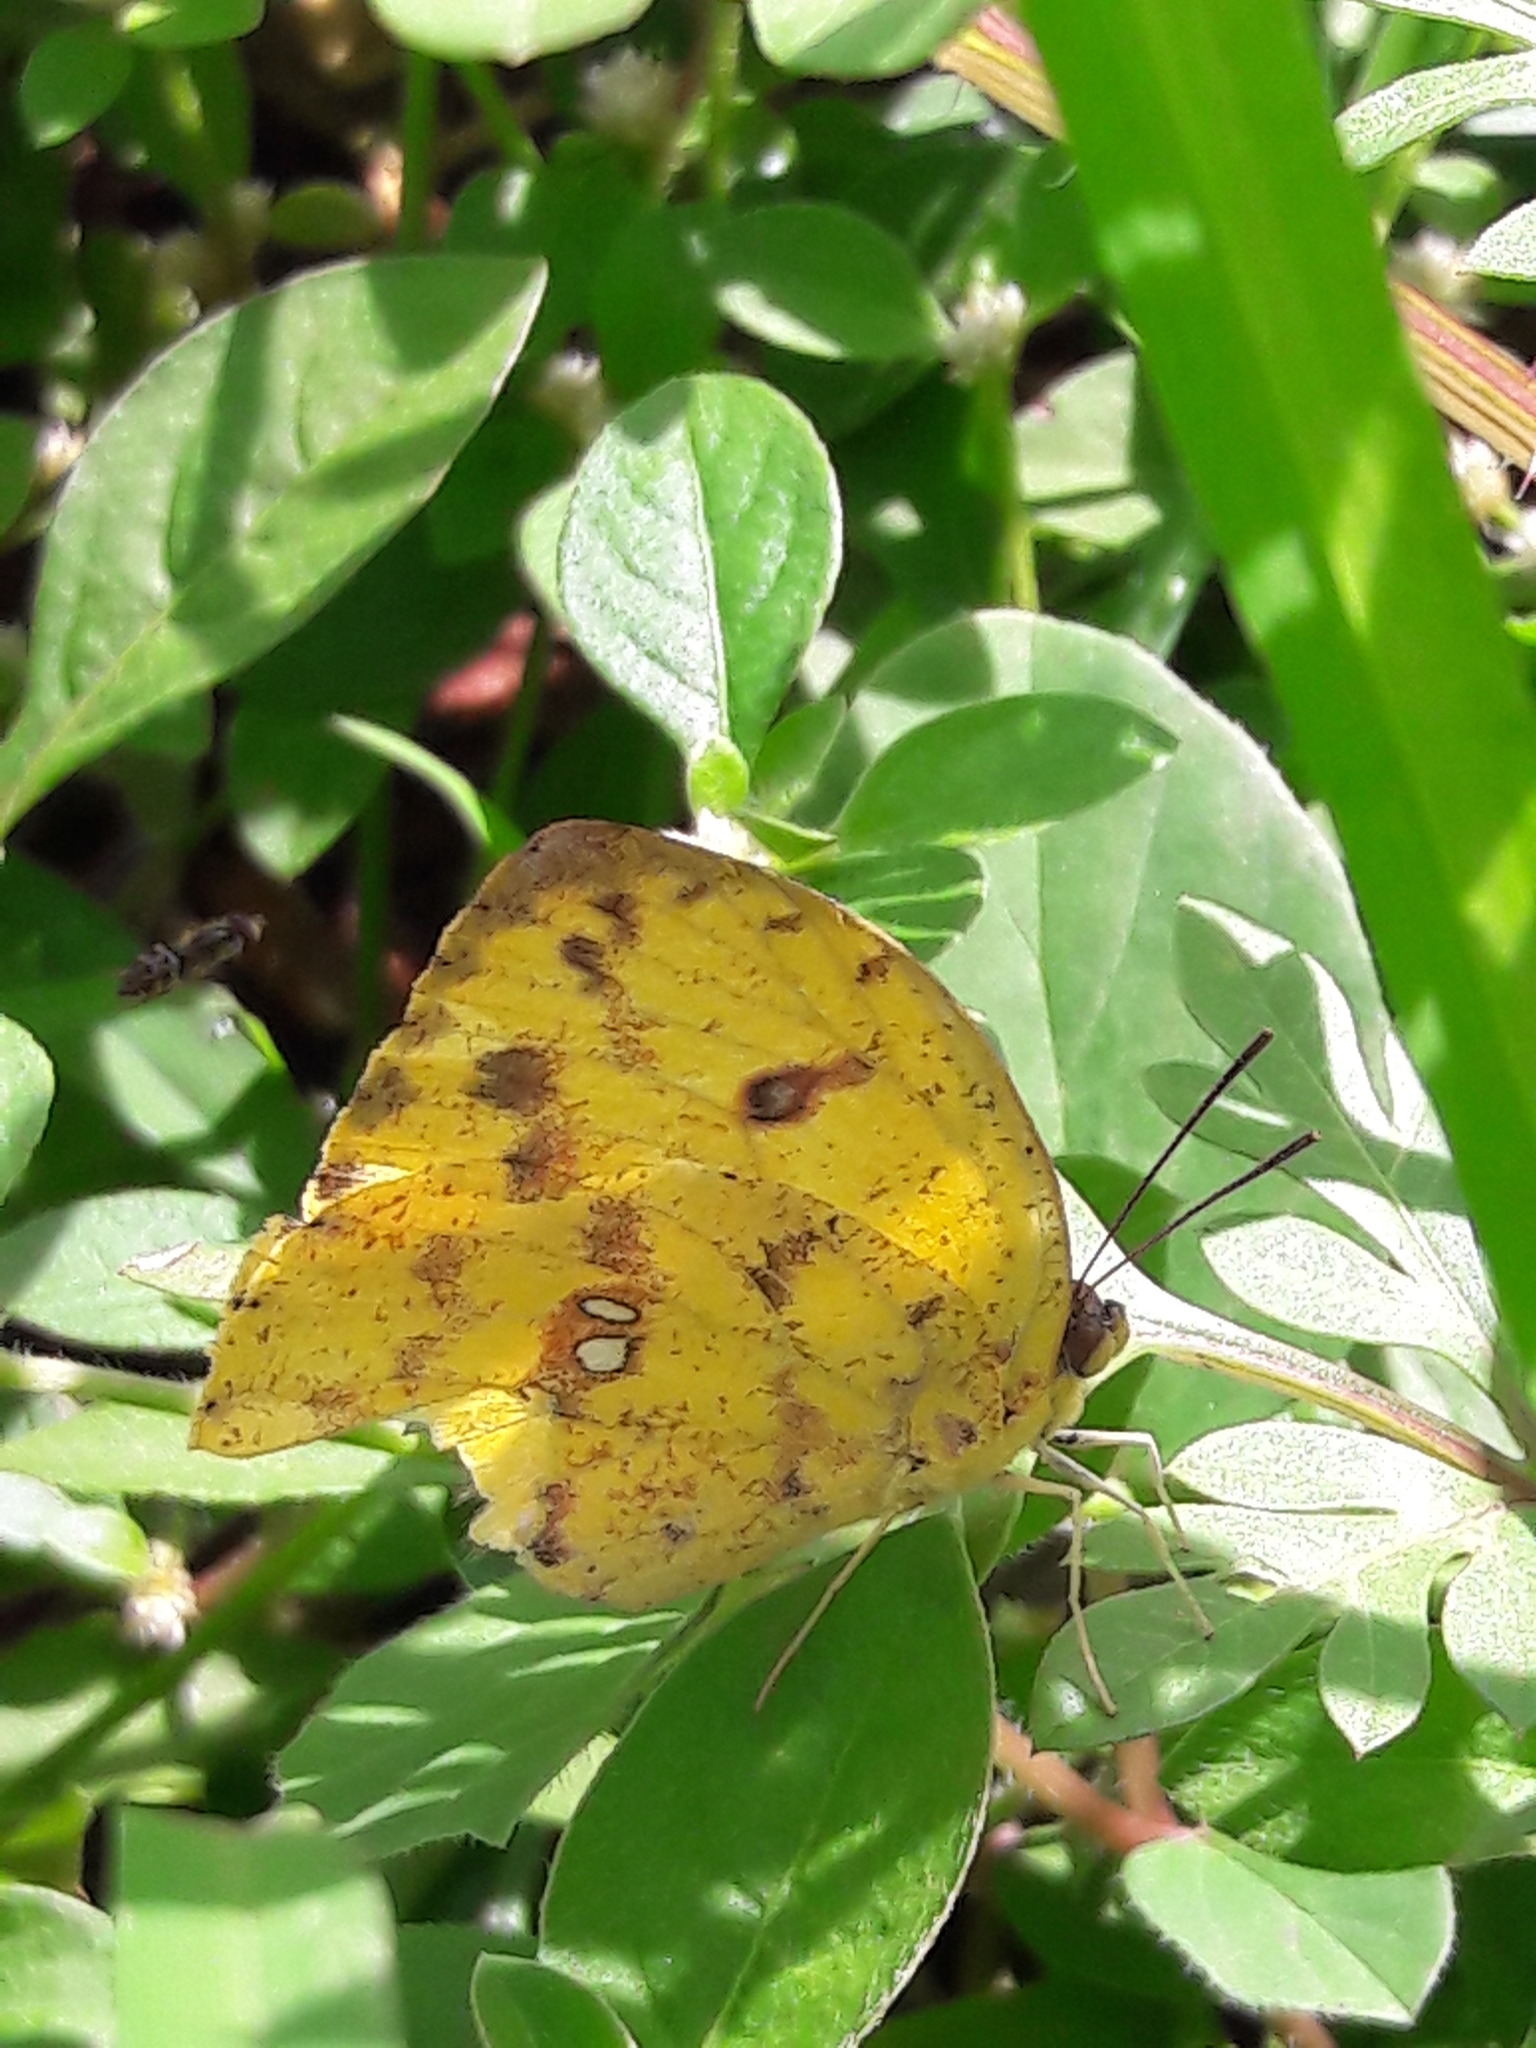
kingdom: Animalia
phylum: Arthropoda
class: Insecta
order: Lepidoptera
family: Pieridae
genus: Phoebis
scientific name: Phoebis argante
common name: Apricot sulphur
